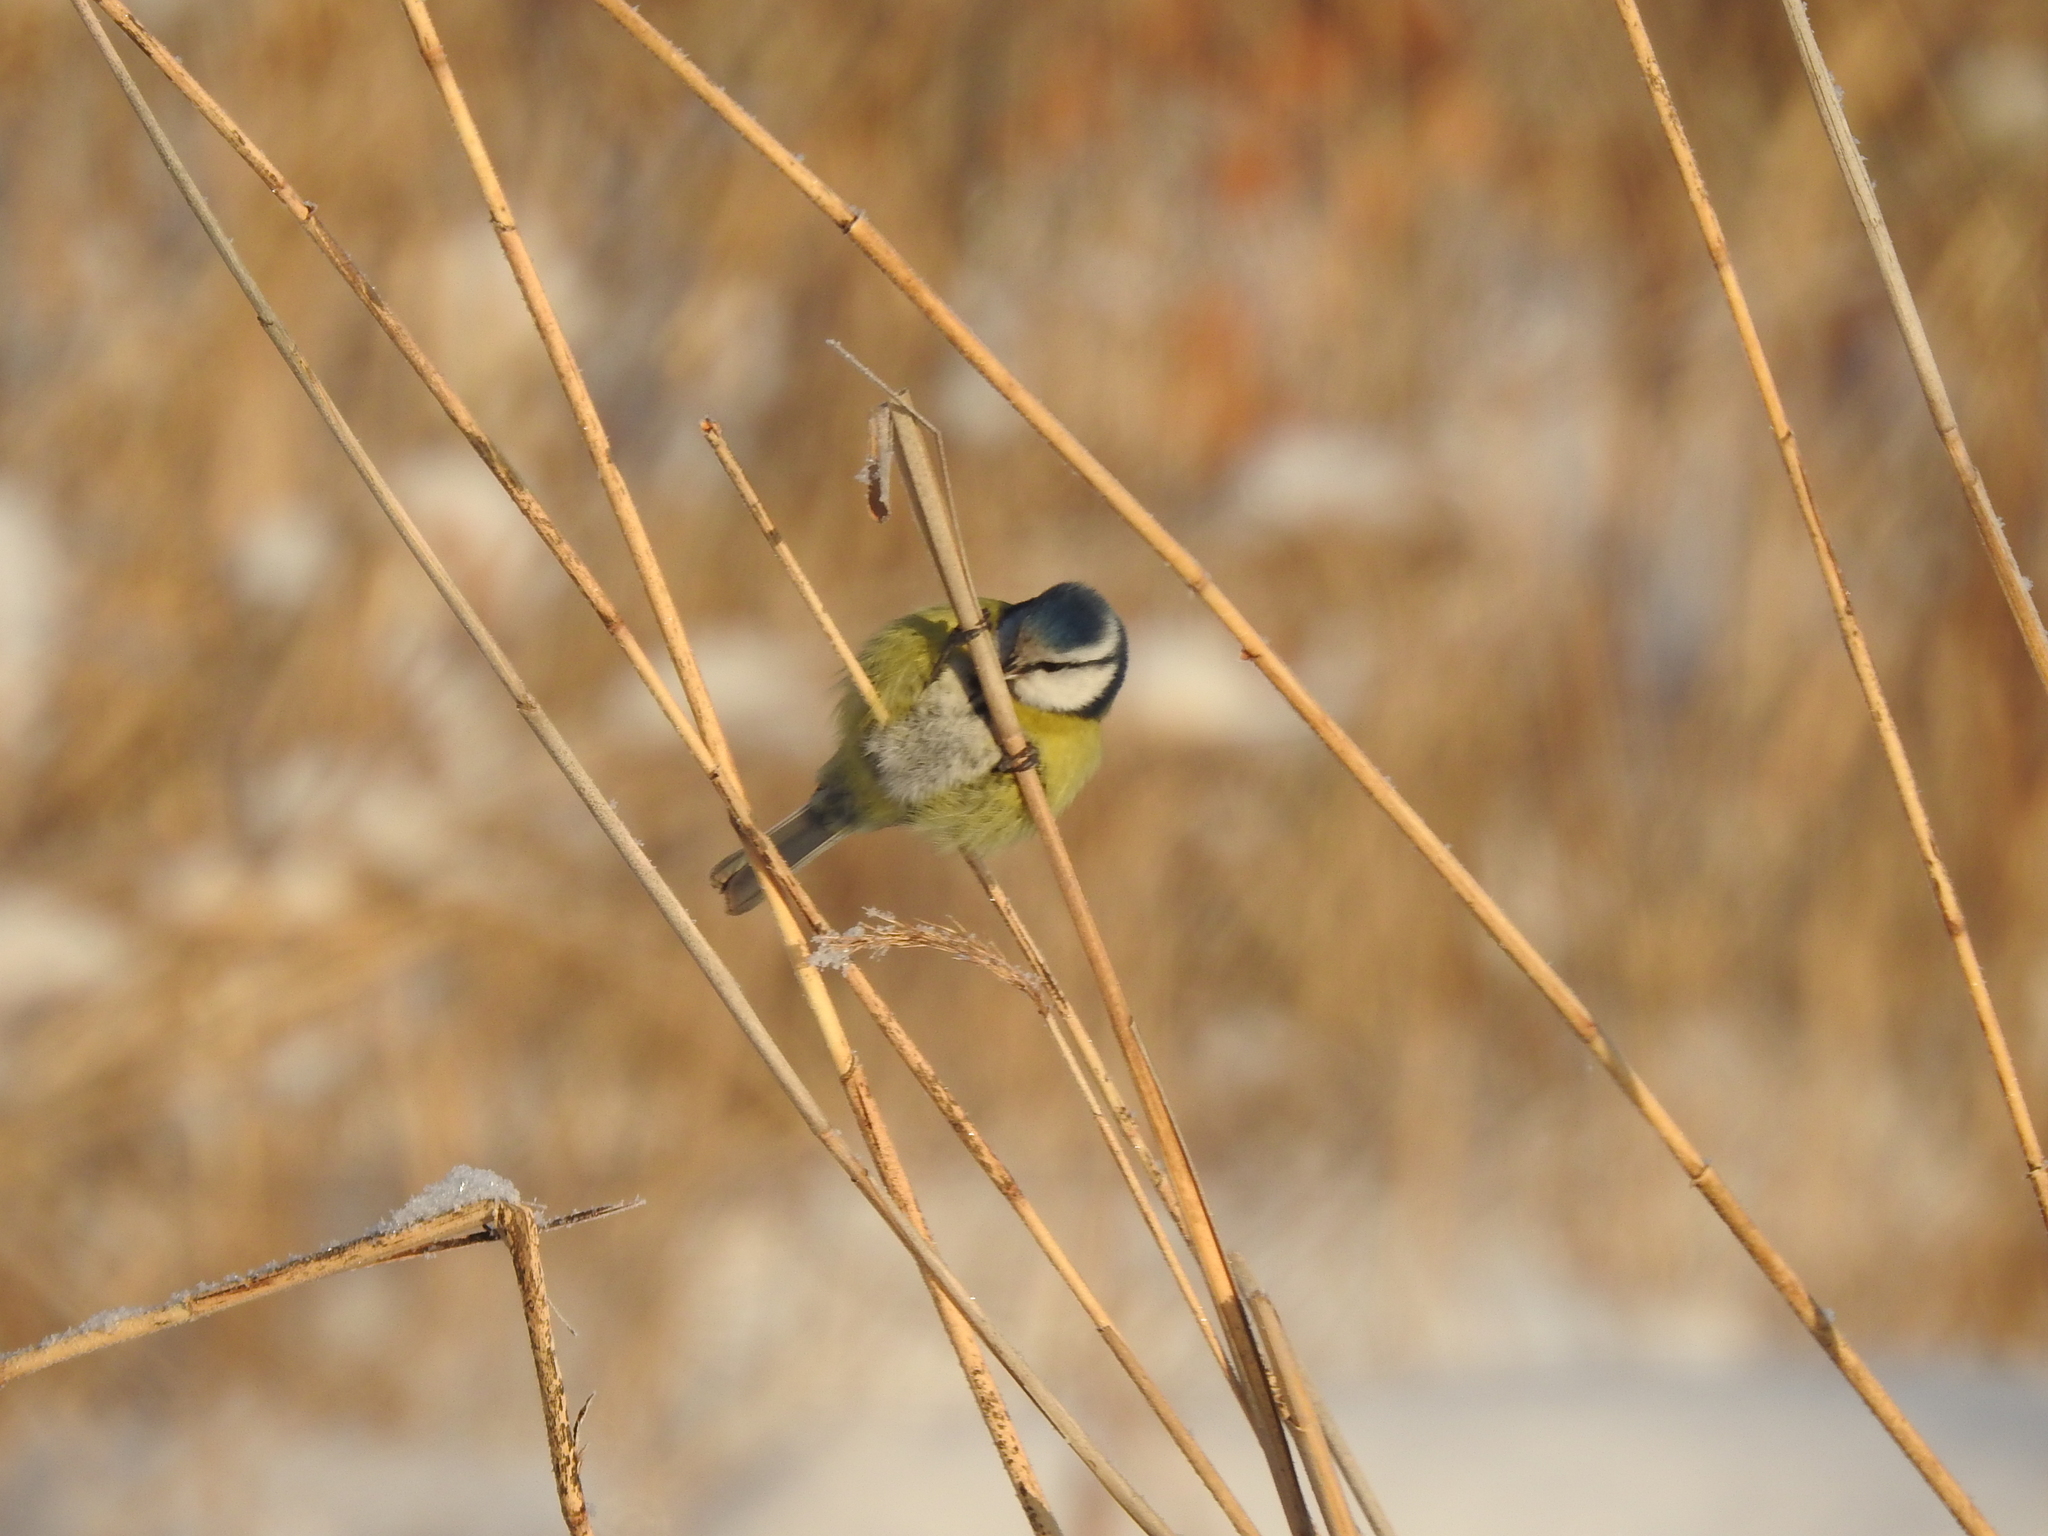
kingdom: Animalia
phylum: Chordata
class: Aves
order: Passeriformes
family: Paridae
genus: Cyanistes
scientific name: Cyanistes caeruleus
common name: Eurasian blue tit
